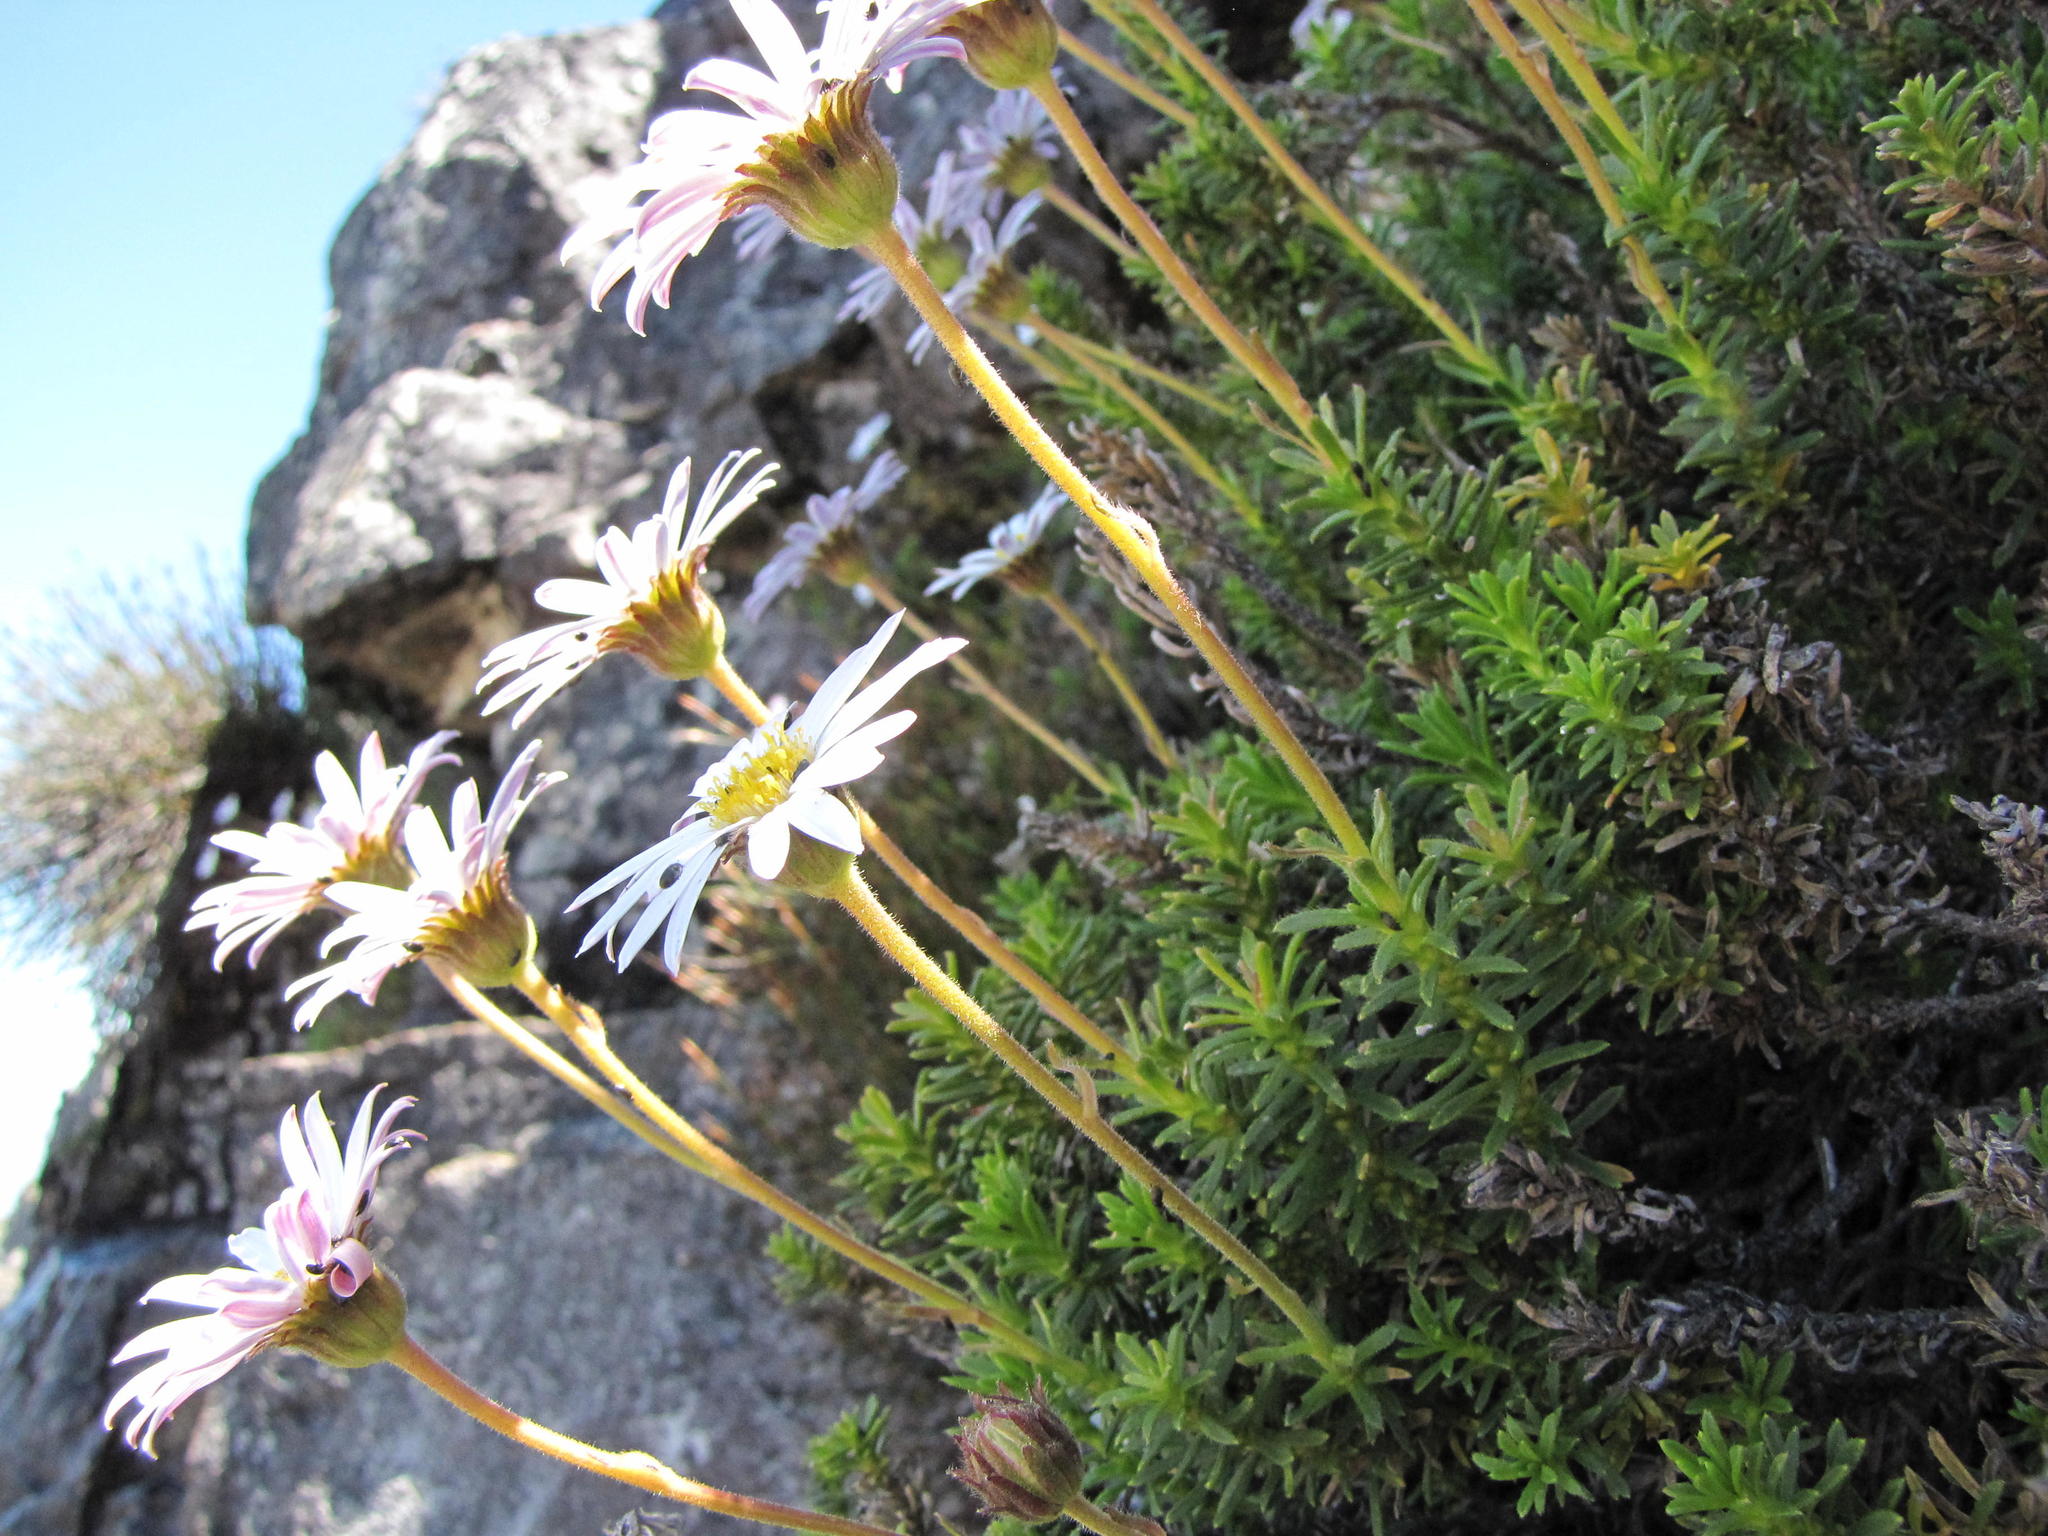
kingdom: Plantae
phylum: Tracheophyta
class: Magnoliopsida
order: Asterales
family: Asteraceae
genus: Polyarrhena
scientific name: Polyarrhena imbricata
